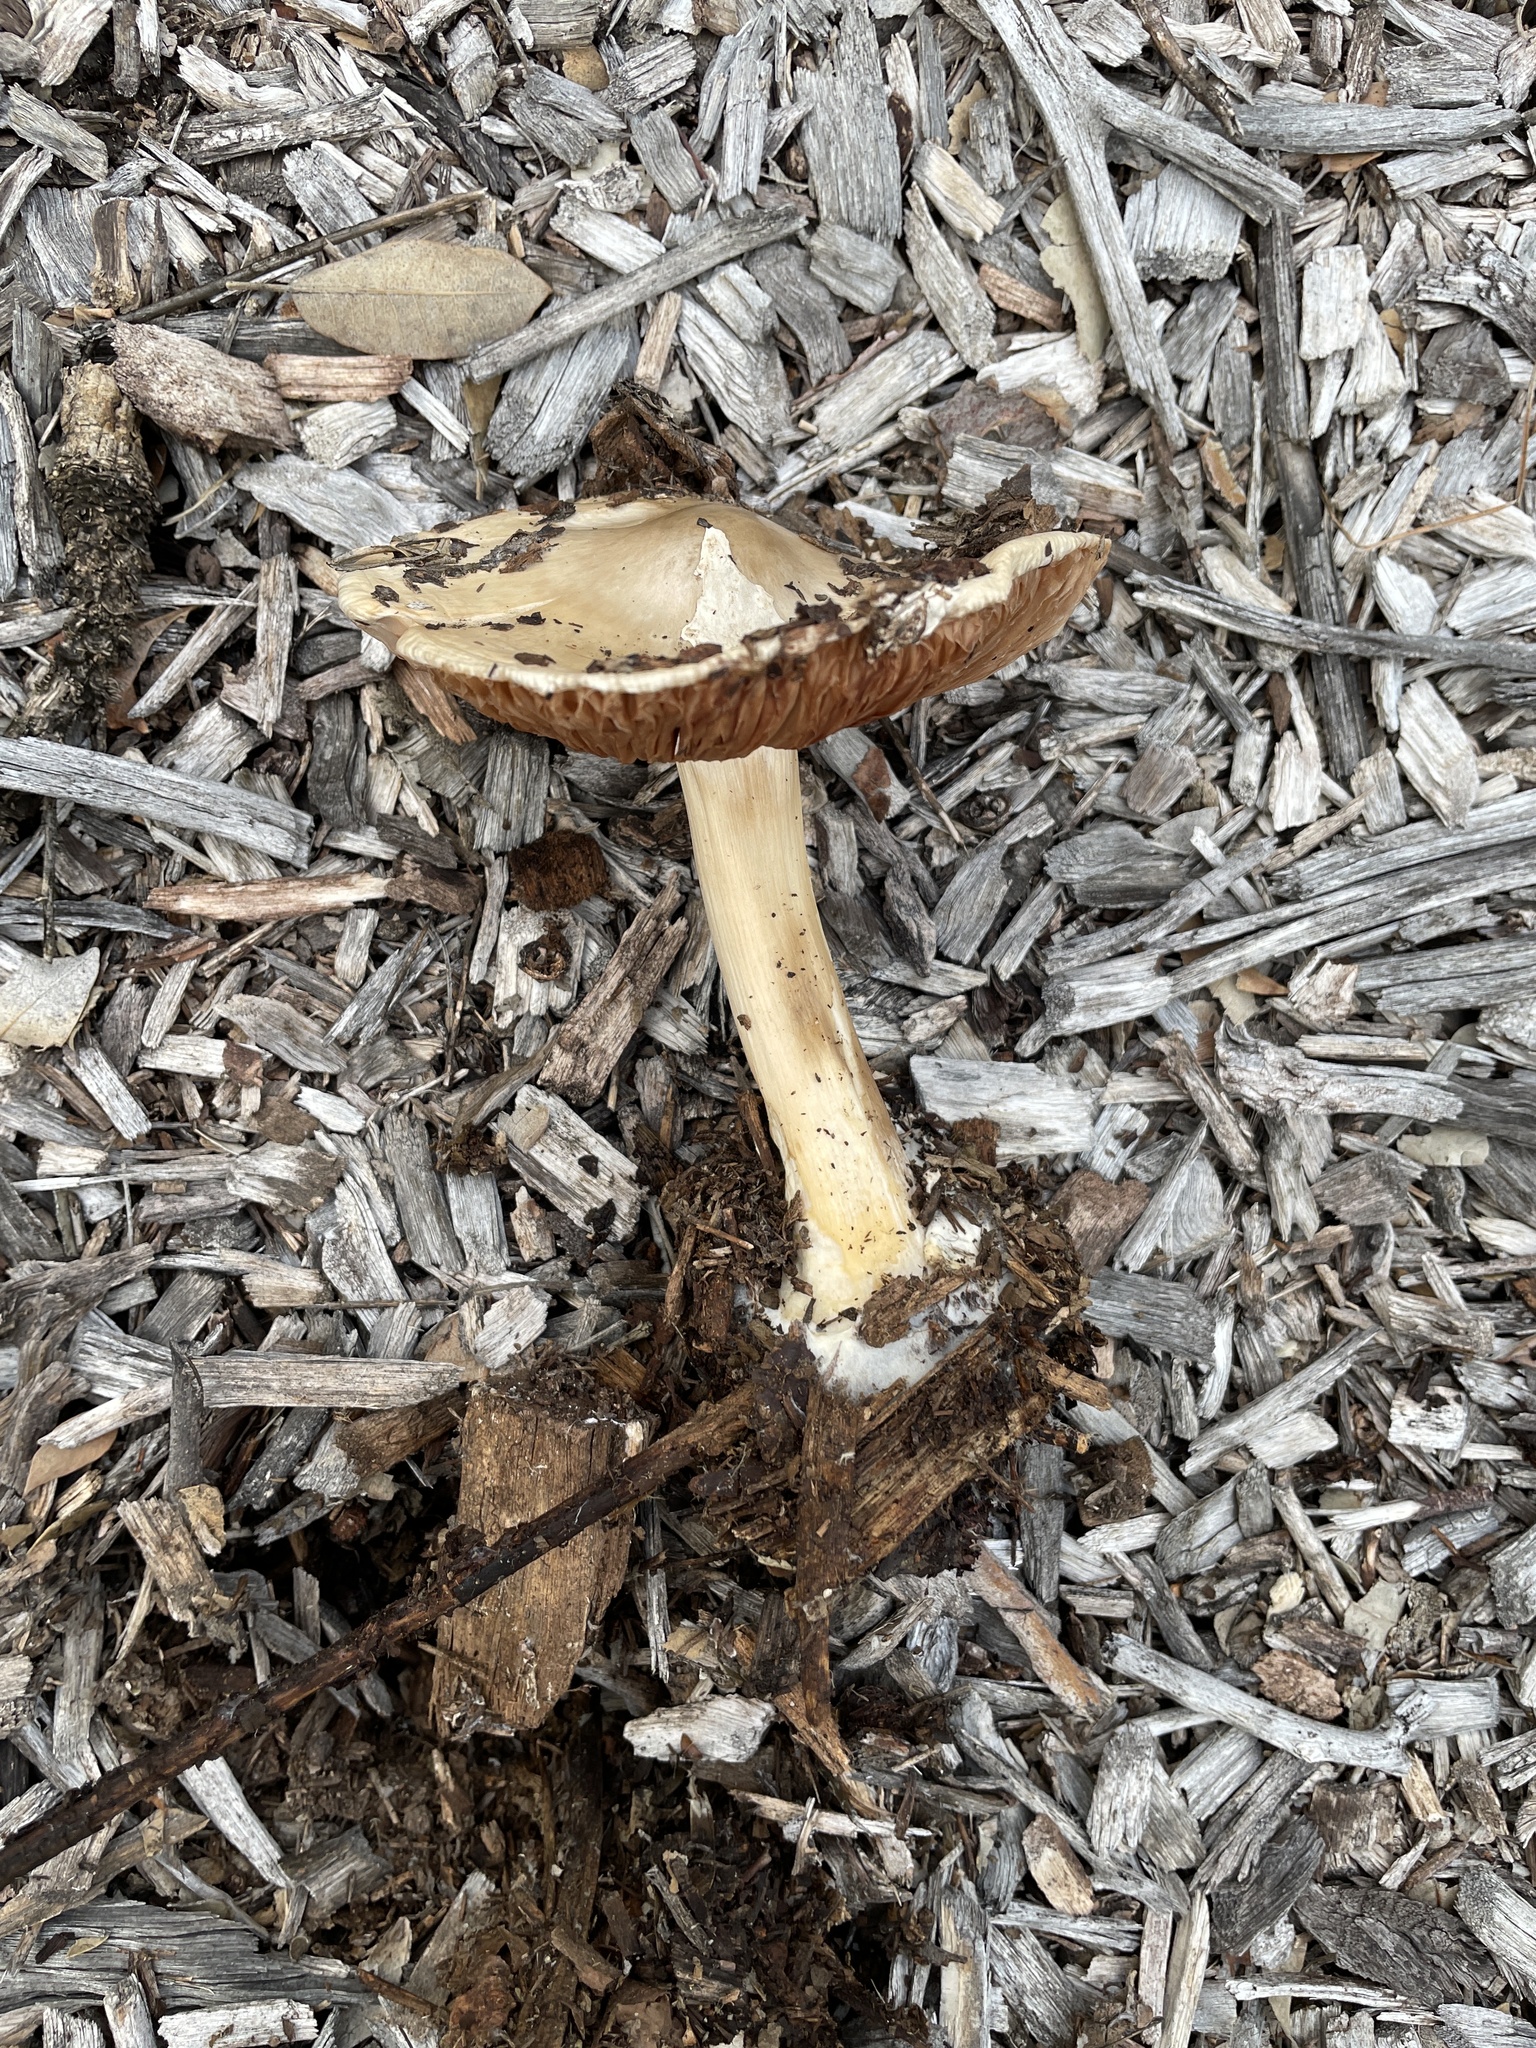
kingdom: Fungi
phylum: Basidiomycota
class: Agaricomycetes
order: Agaricales
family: Pluteaceae
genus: Volvopluteus
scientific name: Volvopluteus gloiocephalus
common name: Stubble rosegill
